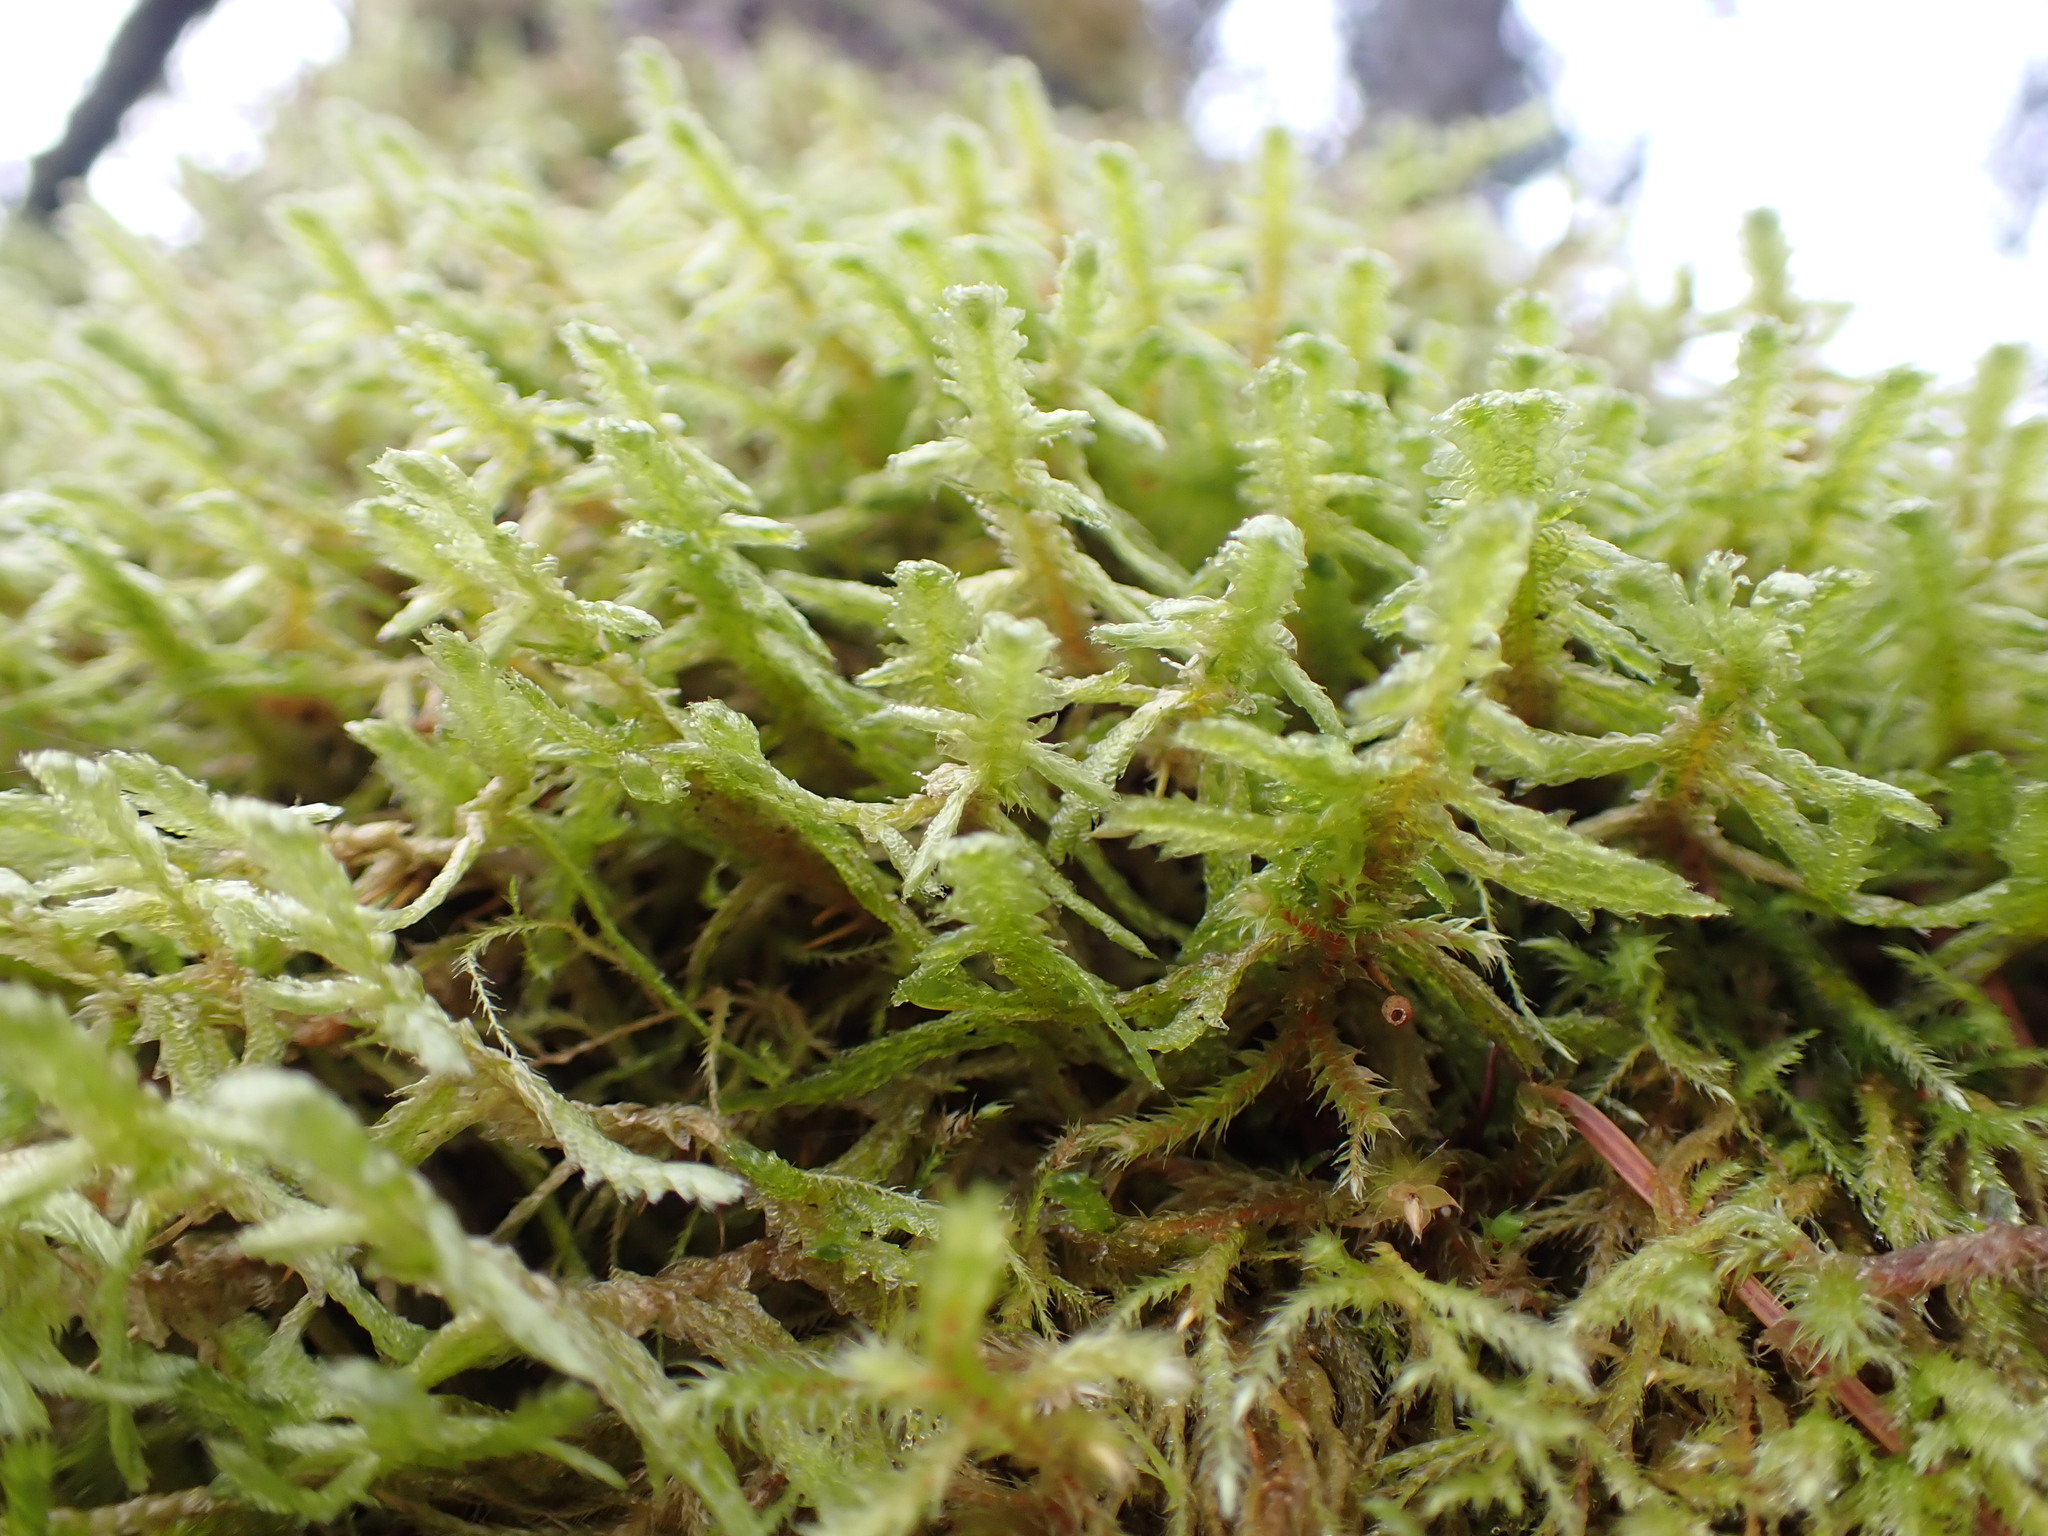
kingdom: Plantae
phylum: Bryophyta
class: Bryopsida
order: Hypnales
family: Neckeraceae
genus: Neckera
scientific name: Neckera douglasii
